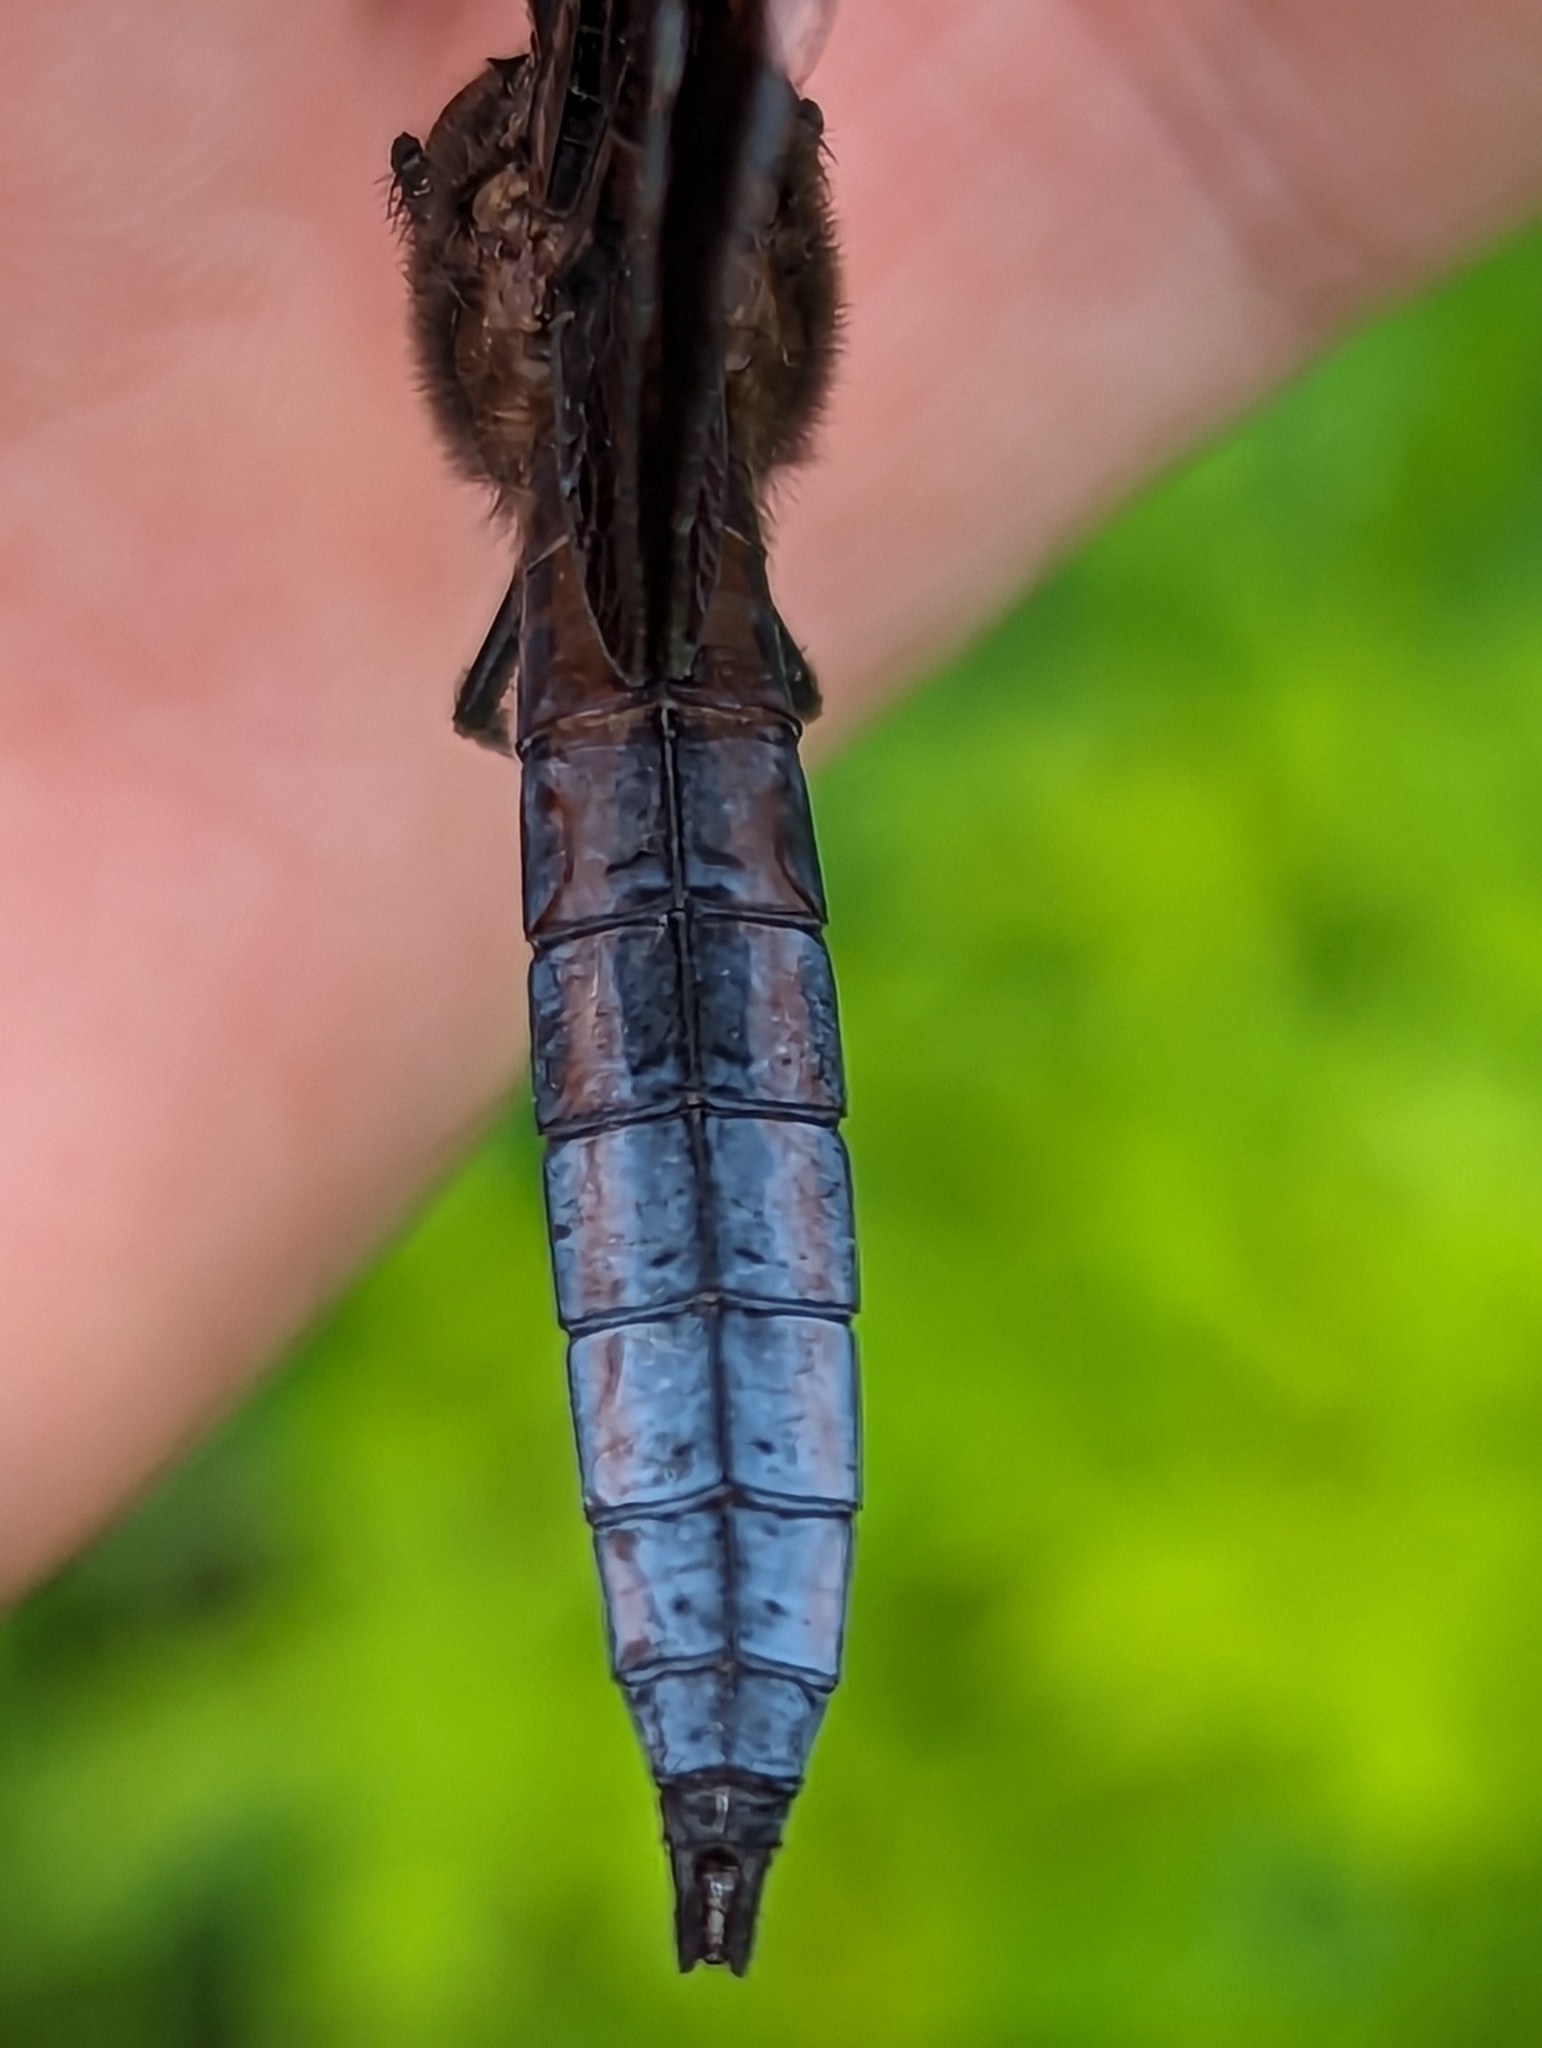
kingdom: Animalia
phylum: Arthropoda
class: Insecta
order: Odonata
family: Libellulidae
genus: Libellula
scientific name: Libellula luctuosa
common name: Widow skimmer
